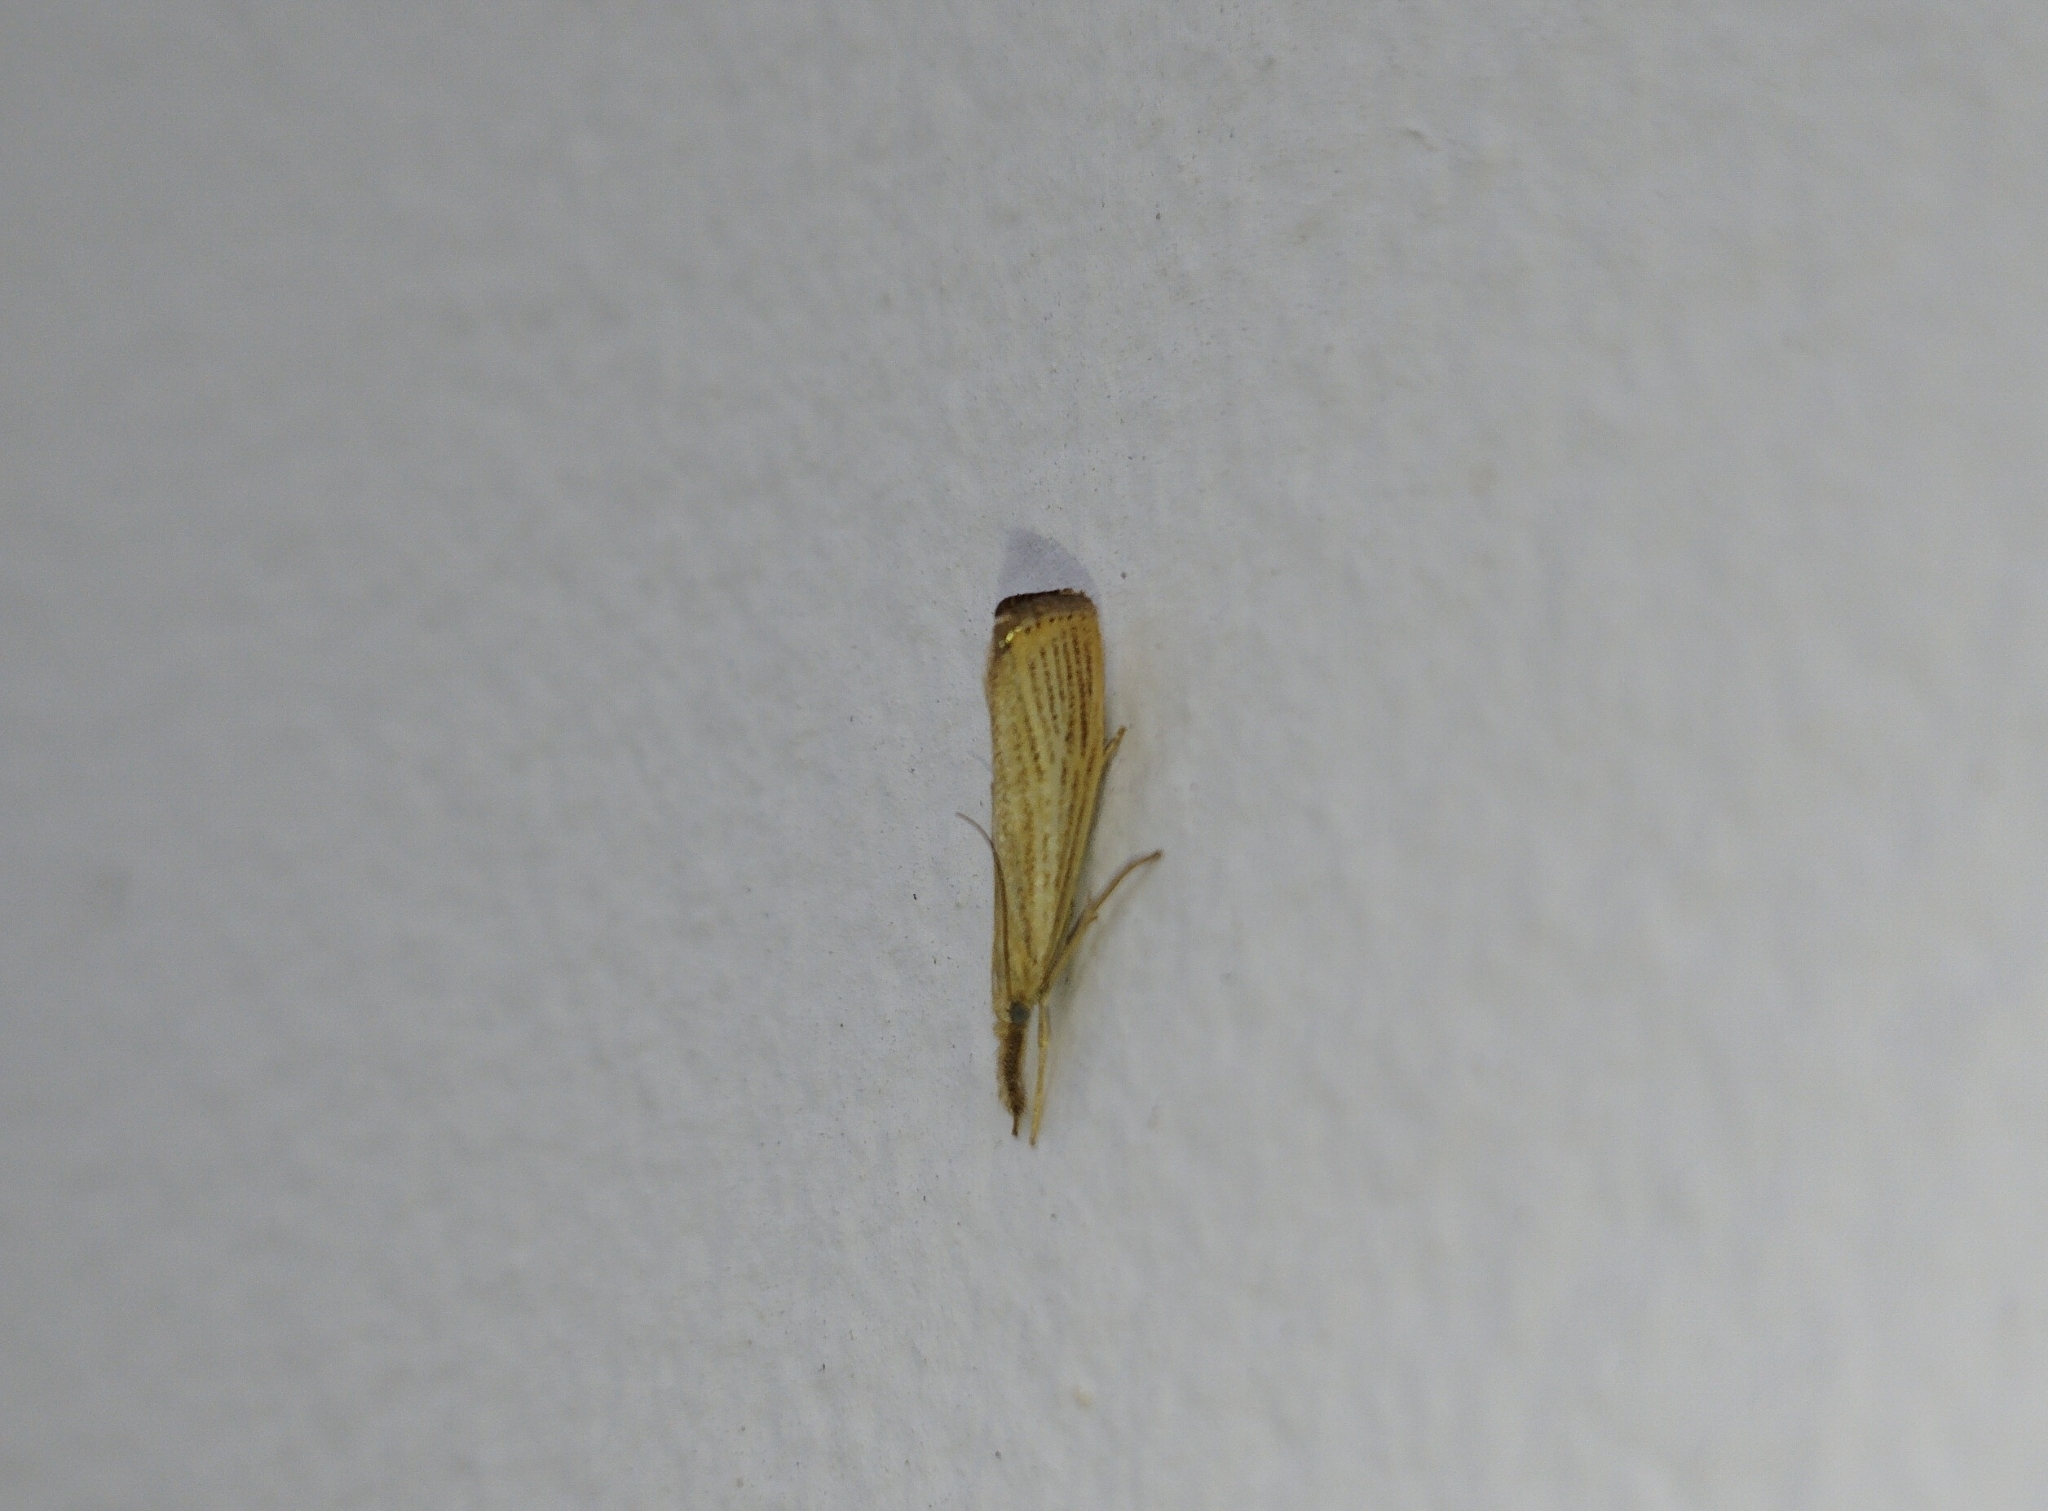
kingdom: Animalia
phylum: Arthropoda
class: Insecta
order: Lepidoptera
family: Crambidae
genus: Agriphila
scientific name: Agriphila straminella
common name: Straw grass-veneer
